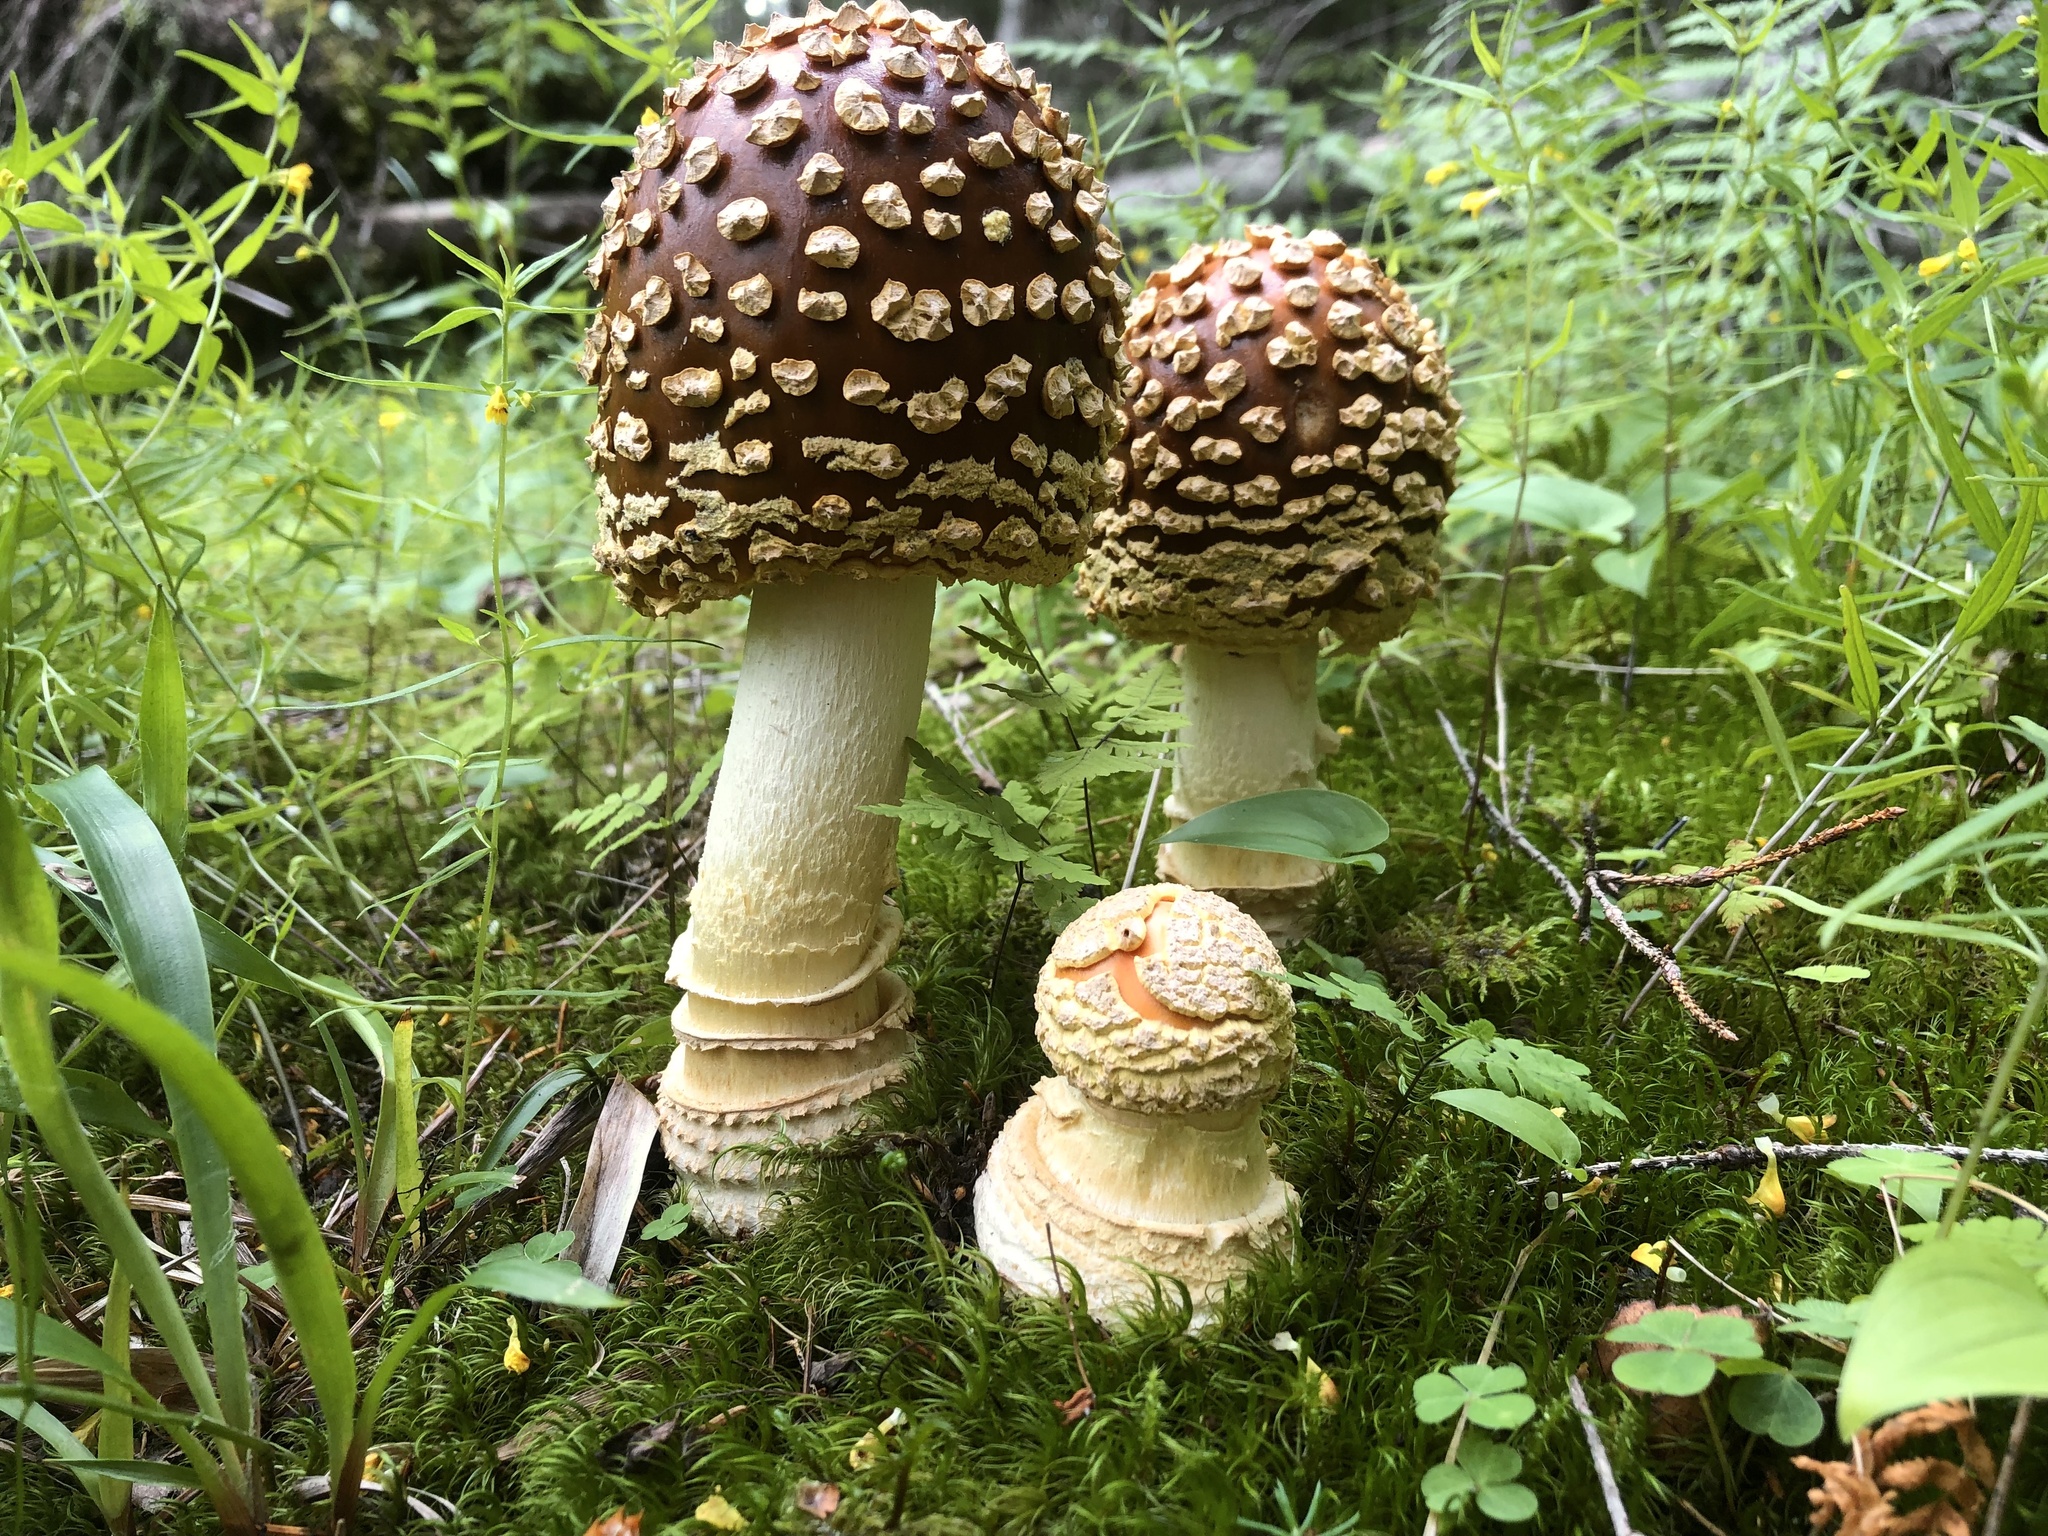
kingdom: Fungi
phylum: Basidiomycota
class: Agaricomycetes
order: Agaricales
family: Amanitaceae
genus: Amanita
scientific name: Amanita regalis
